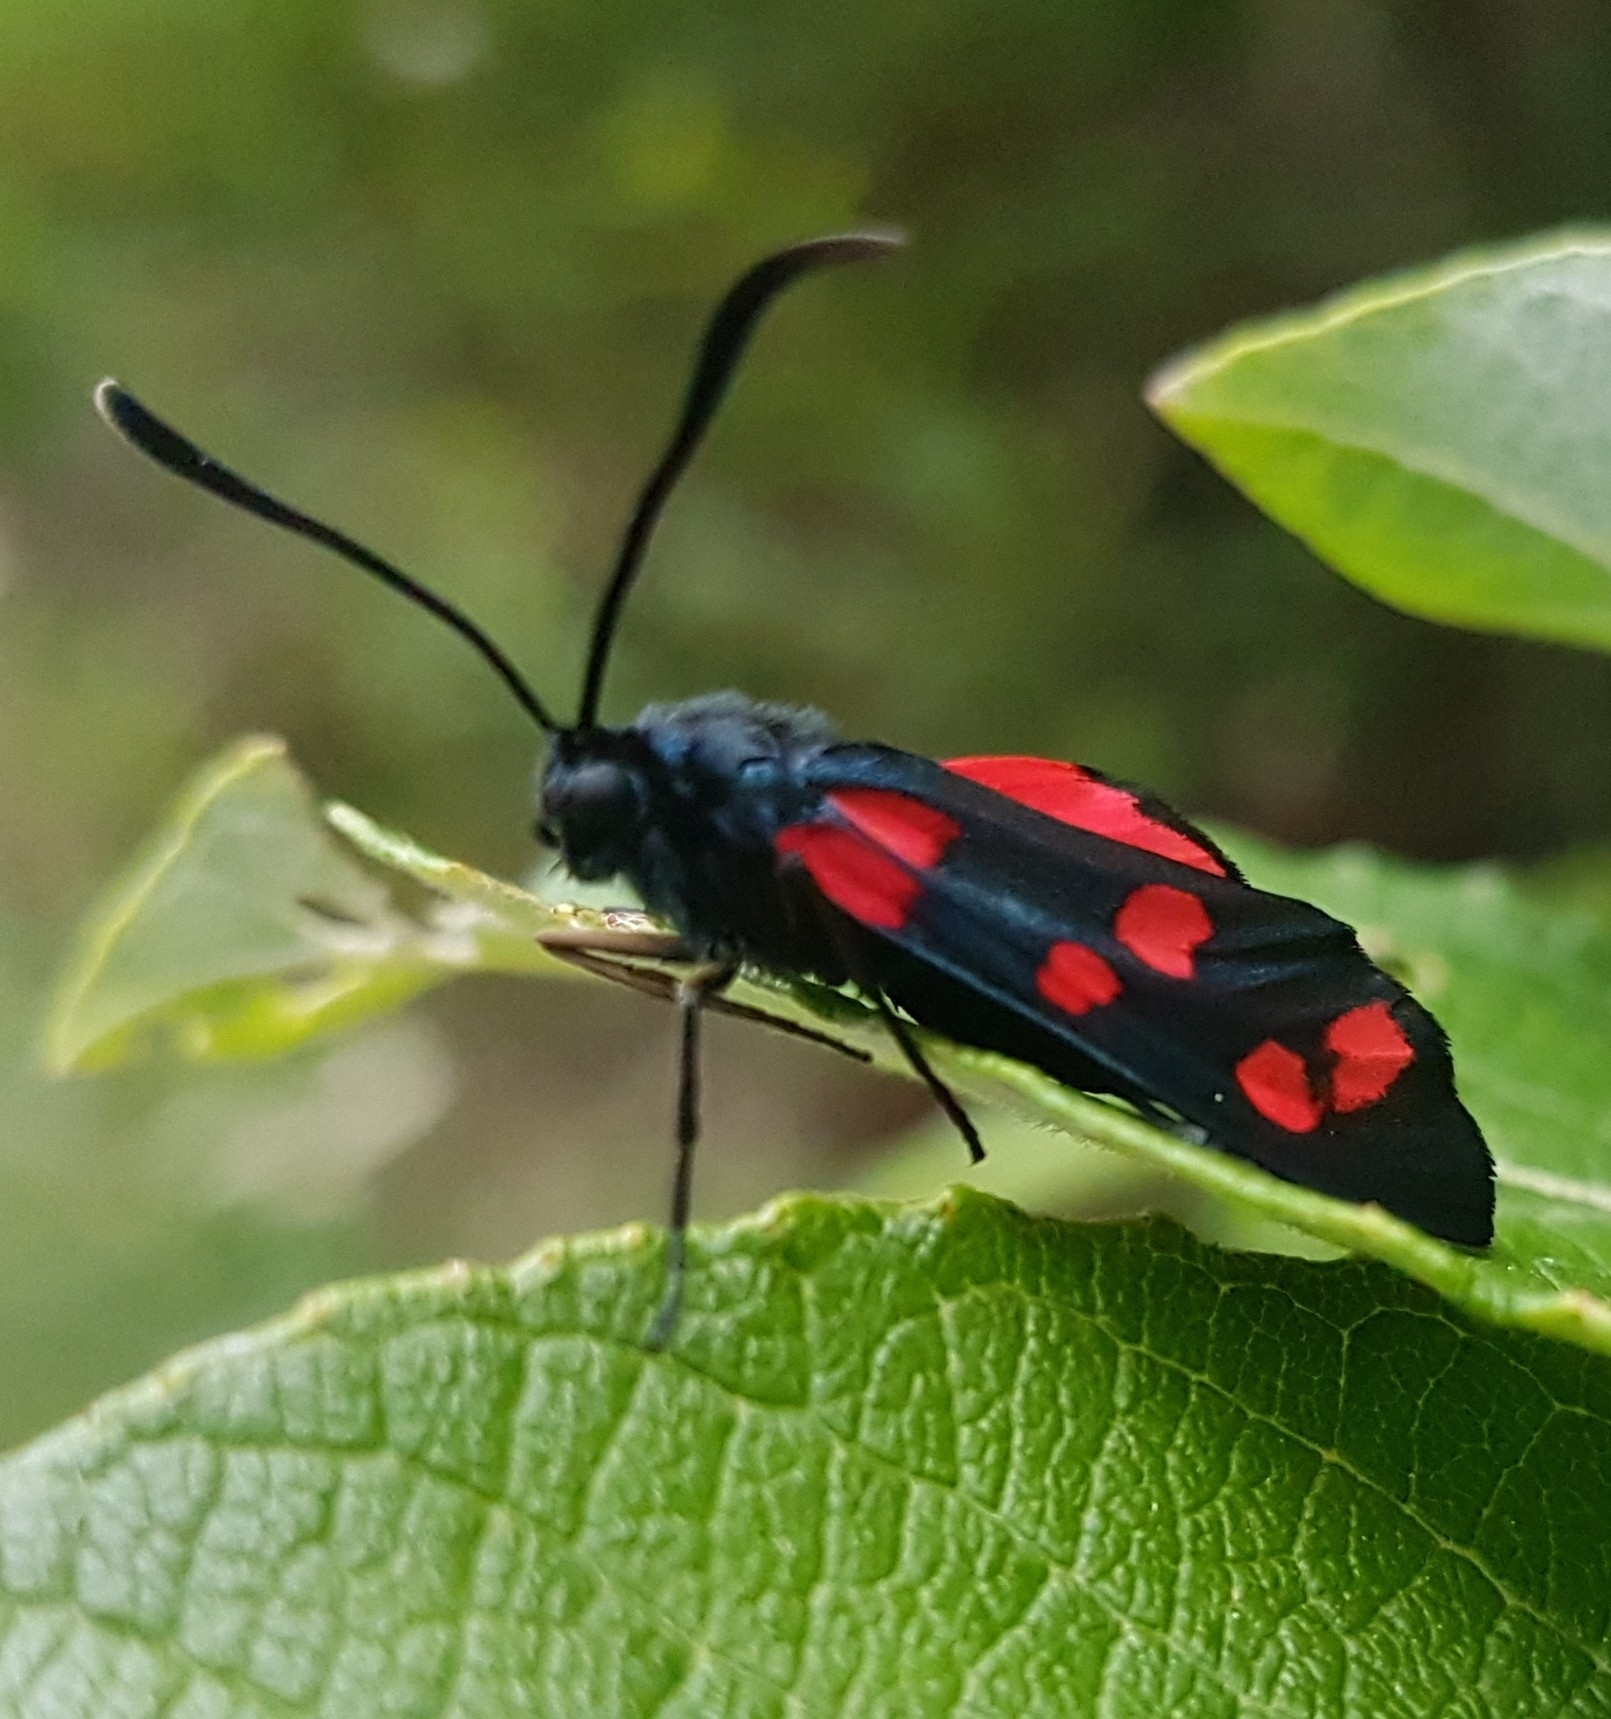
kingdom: Animalia
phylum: Arthropoda
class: Insecta
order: Lepidoptera
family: Zygaenidae
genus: Zygaena
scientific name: Zygaena filipendulae
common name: Six-spot burnet
